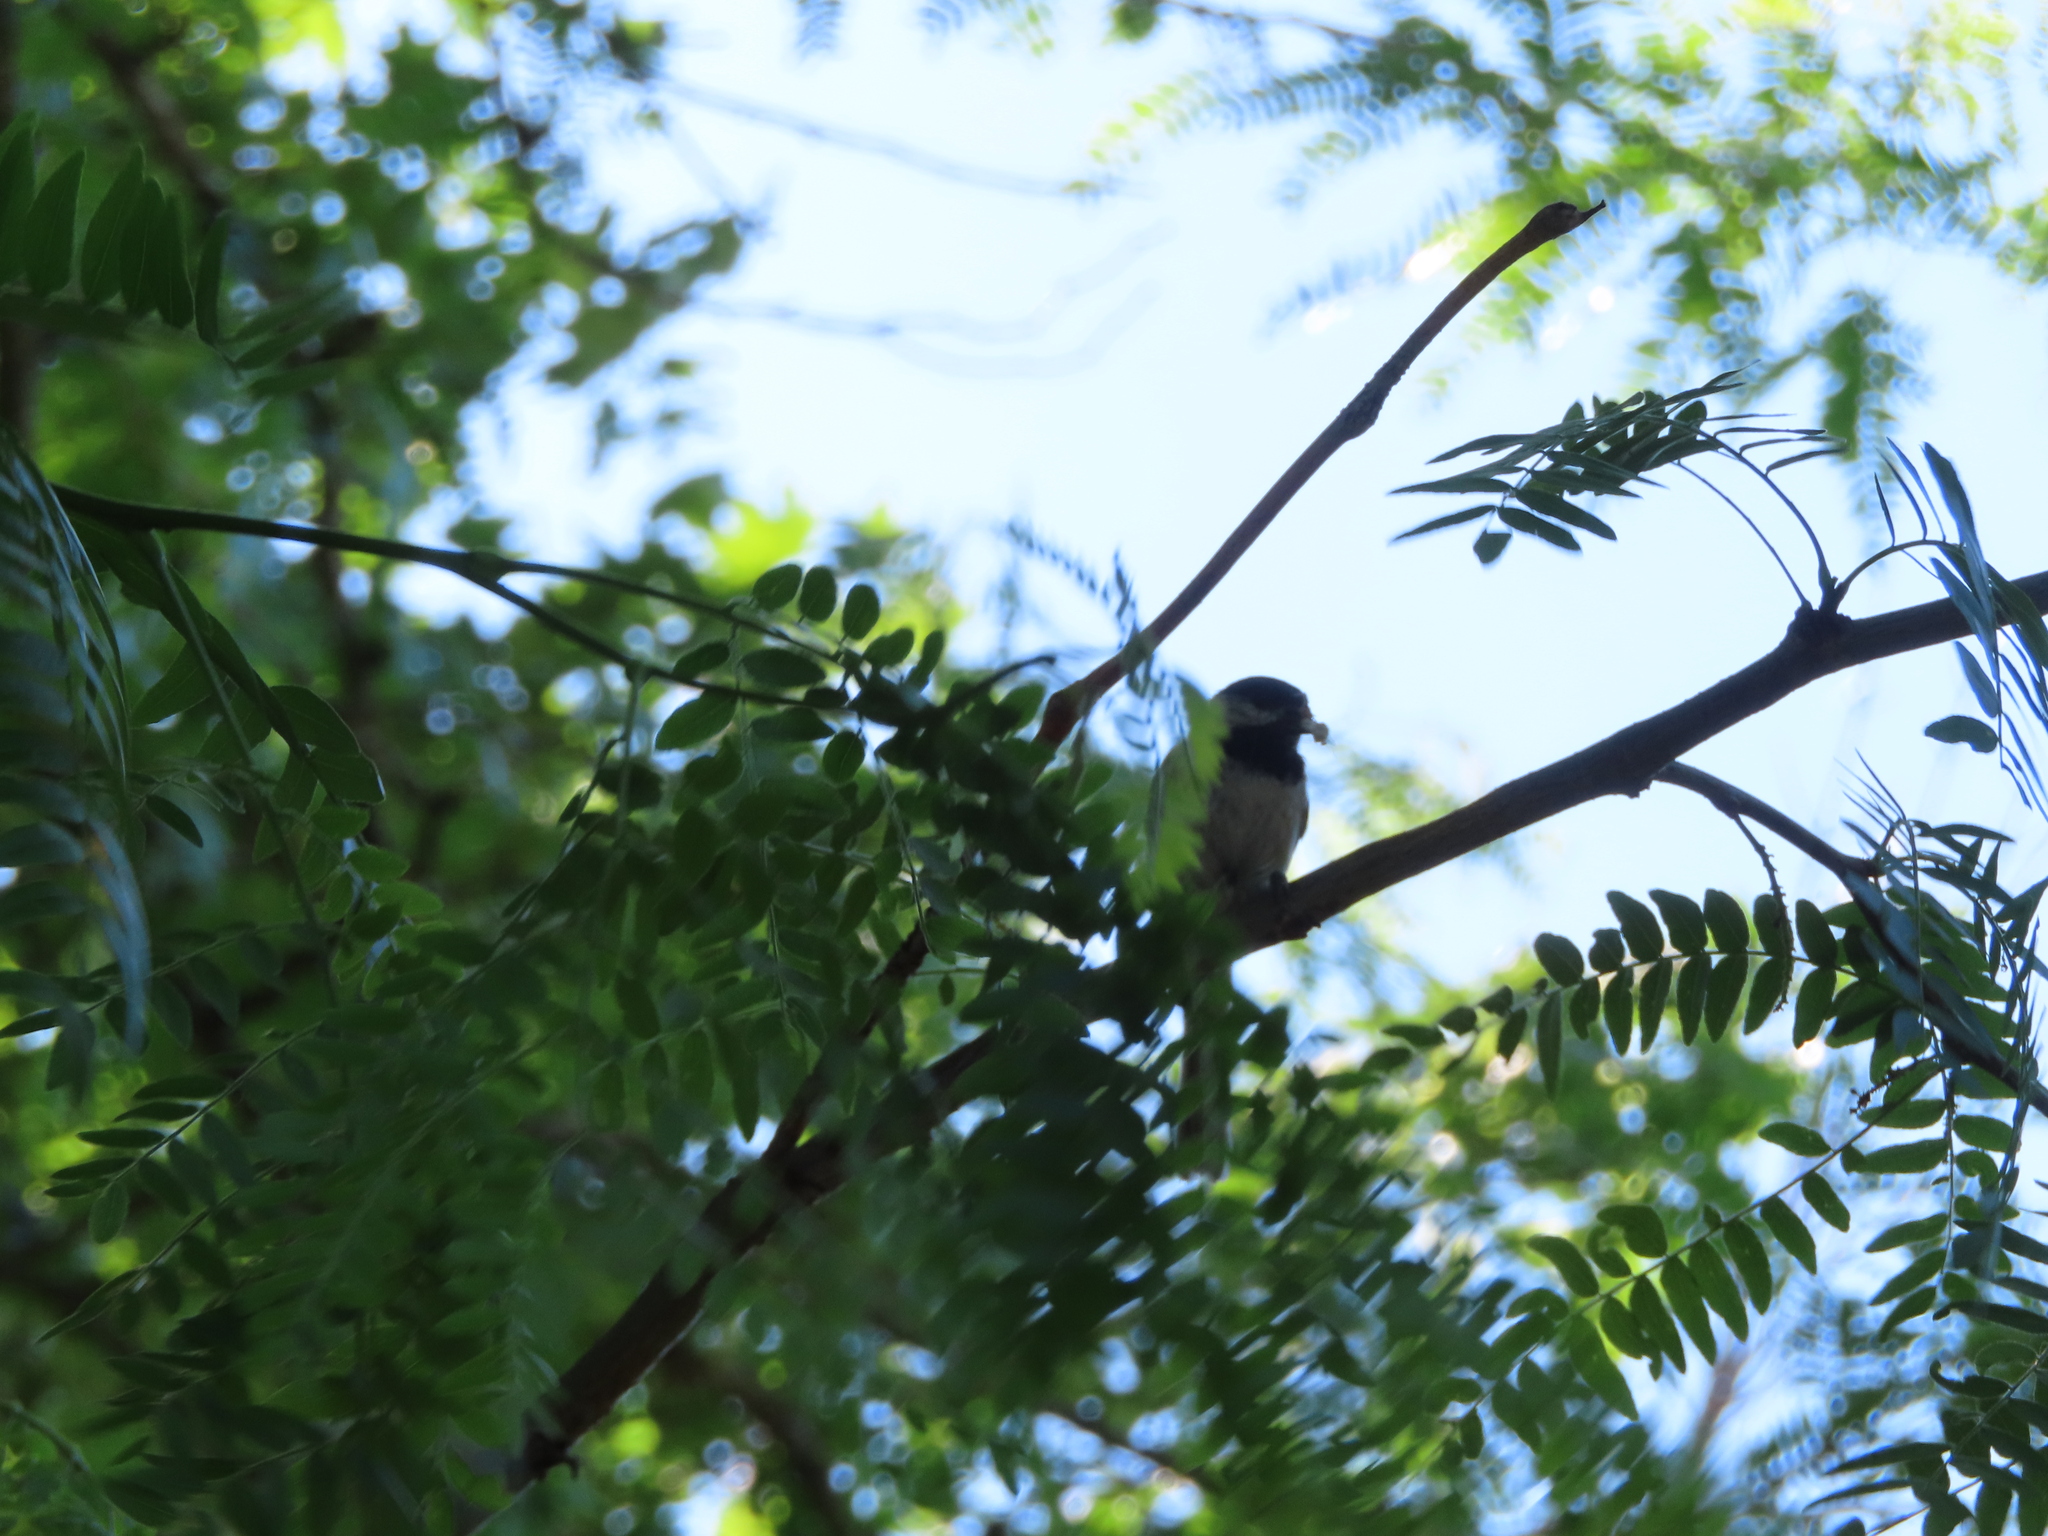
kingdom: Animalia
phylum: Chordata
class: Aves
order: Passeriformes
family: Paridae
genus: Poecile
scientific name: Poecile atricapillus
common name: Black-capped chickadee
